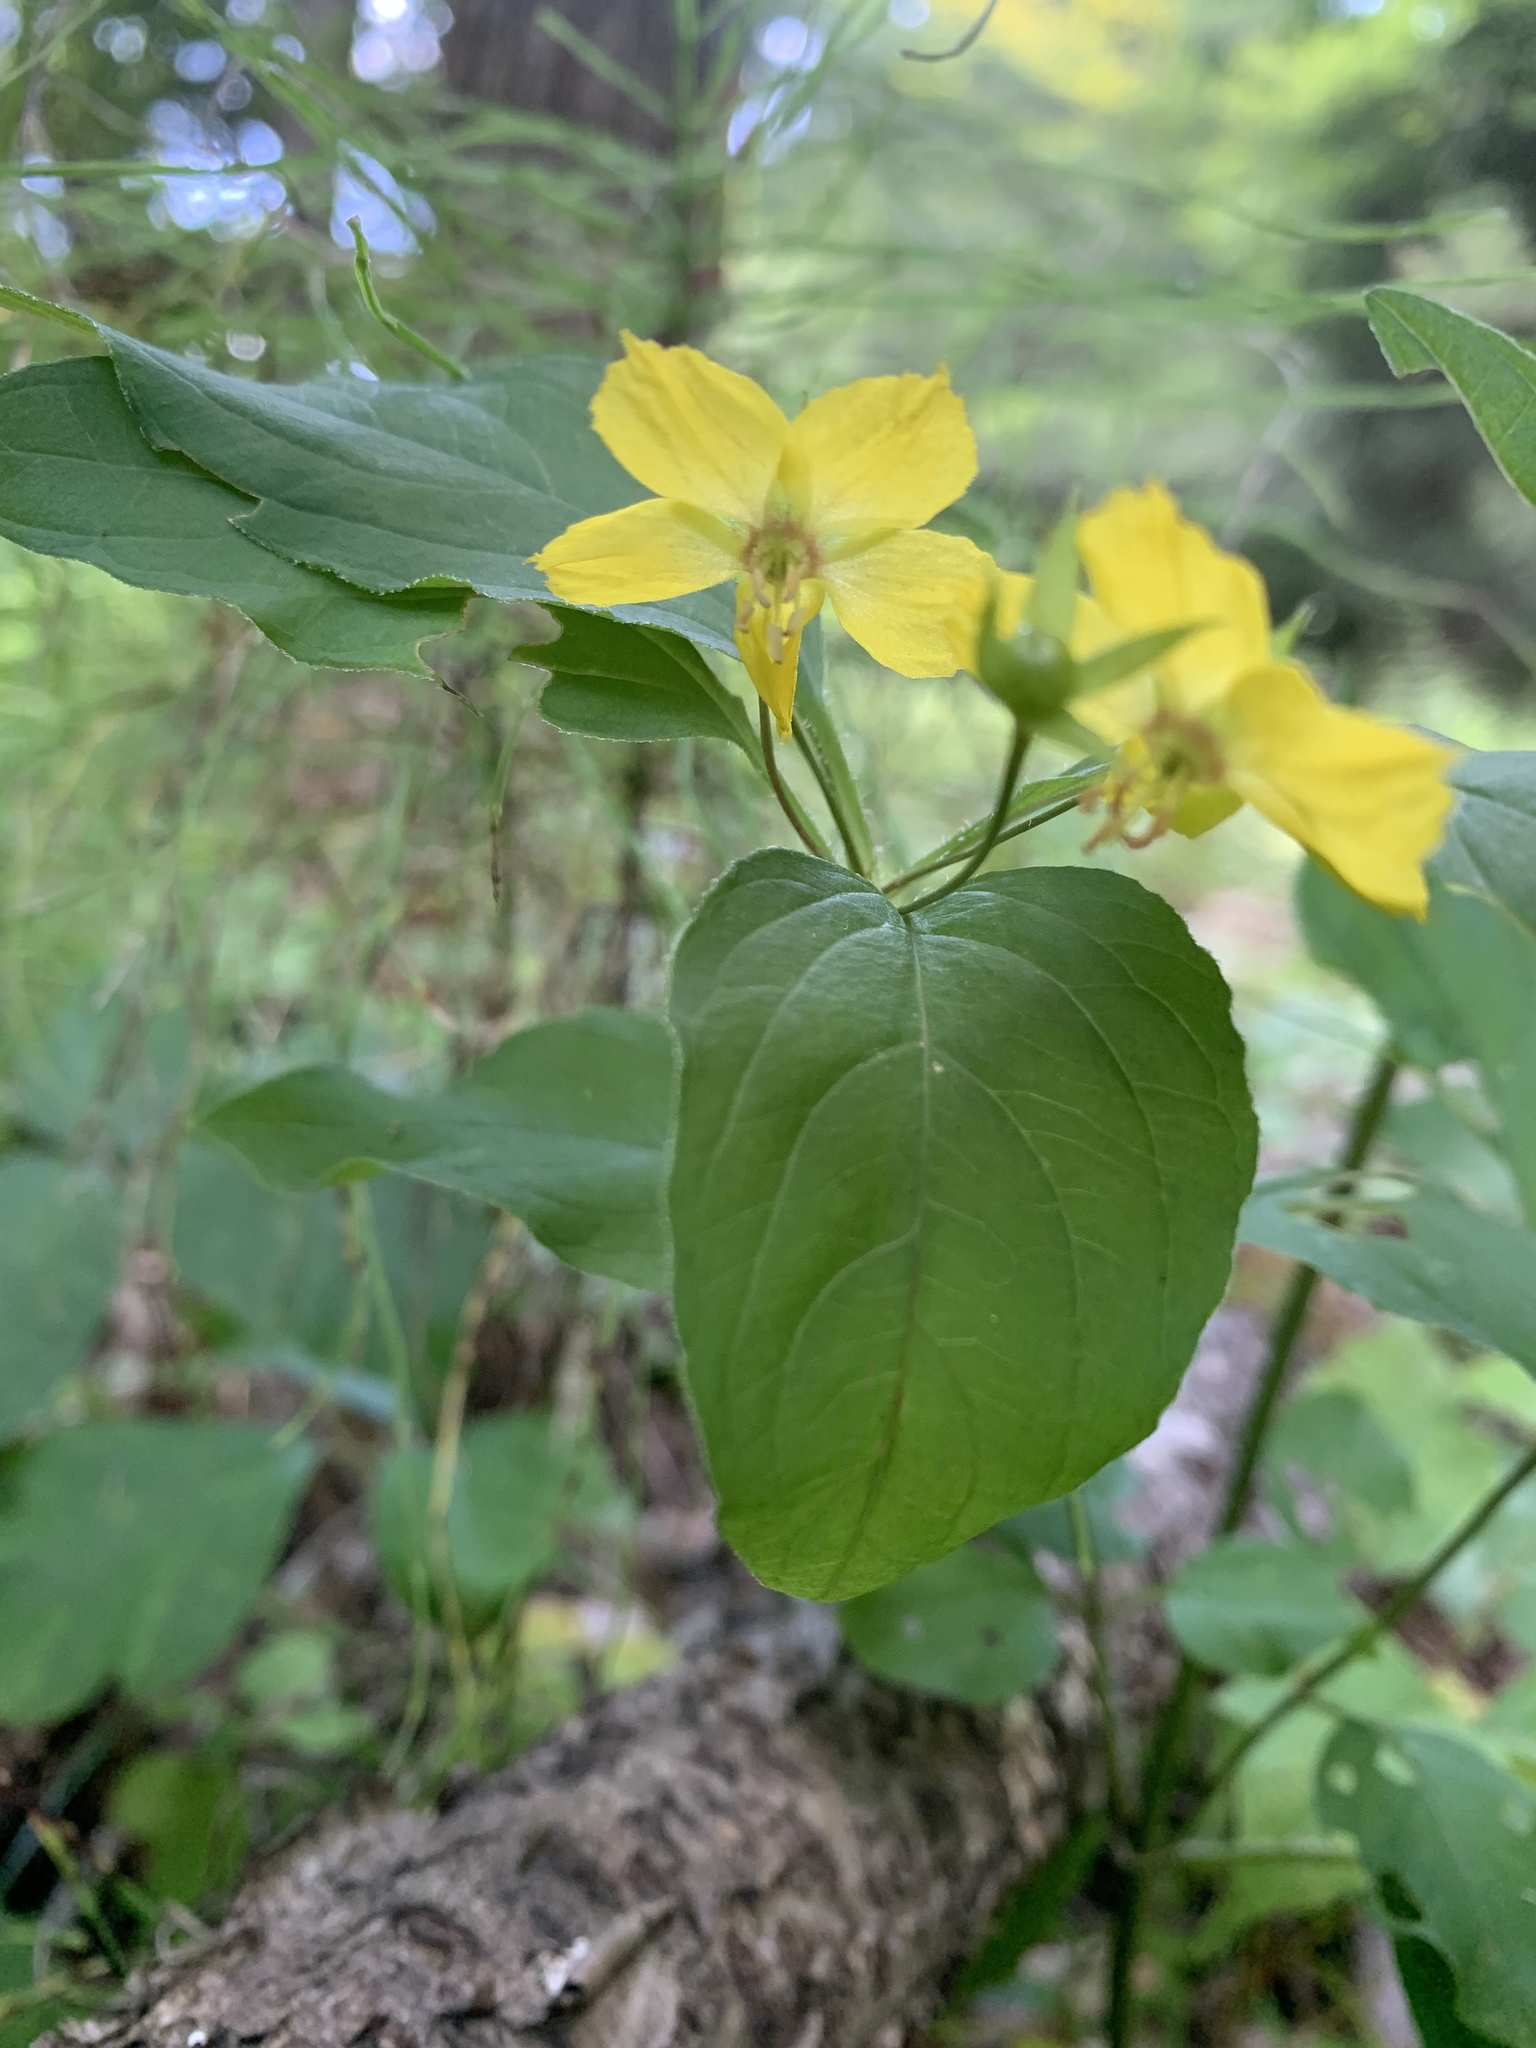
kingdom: Plantae
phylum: Tracheophyta
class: Magnoliopsida
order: Ericales
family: Primulaceae
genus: Lysimachia
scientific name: Lysimachia ciliata
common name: Fringed loosestrife
